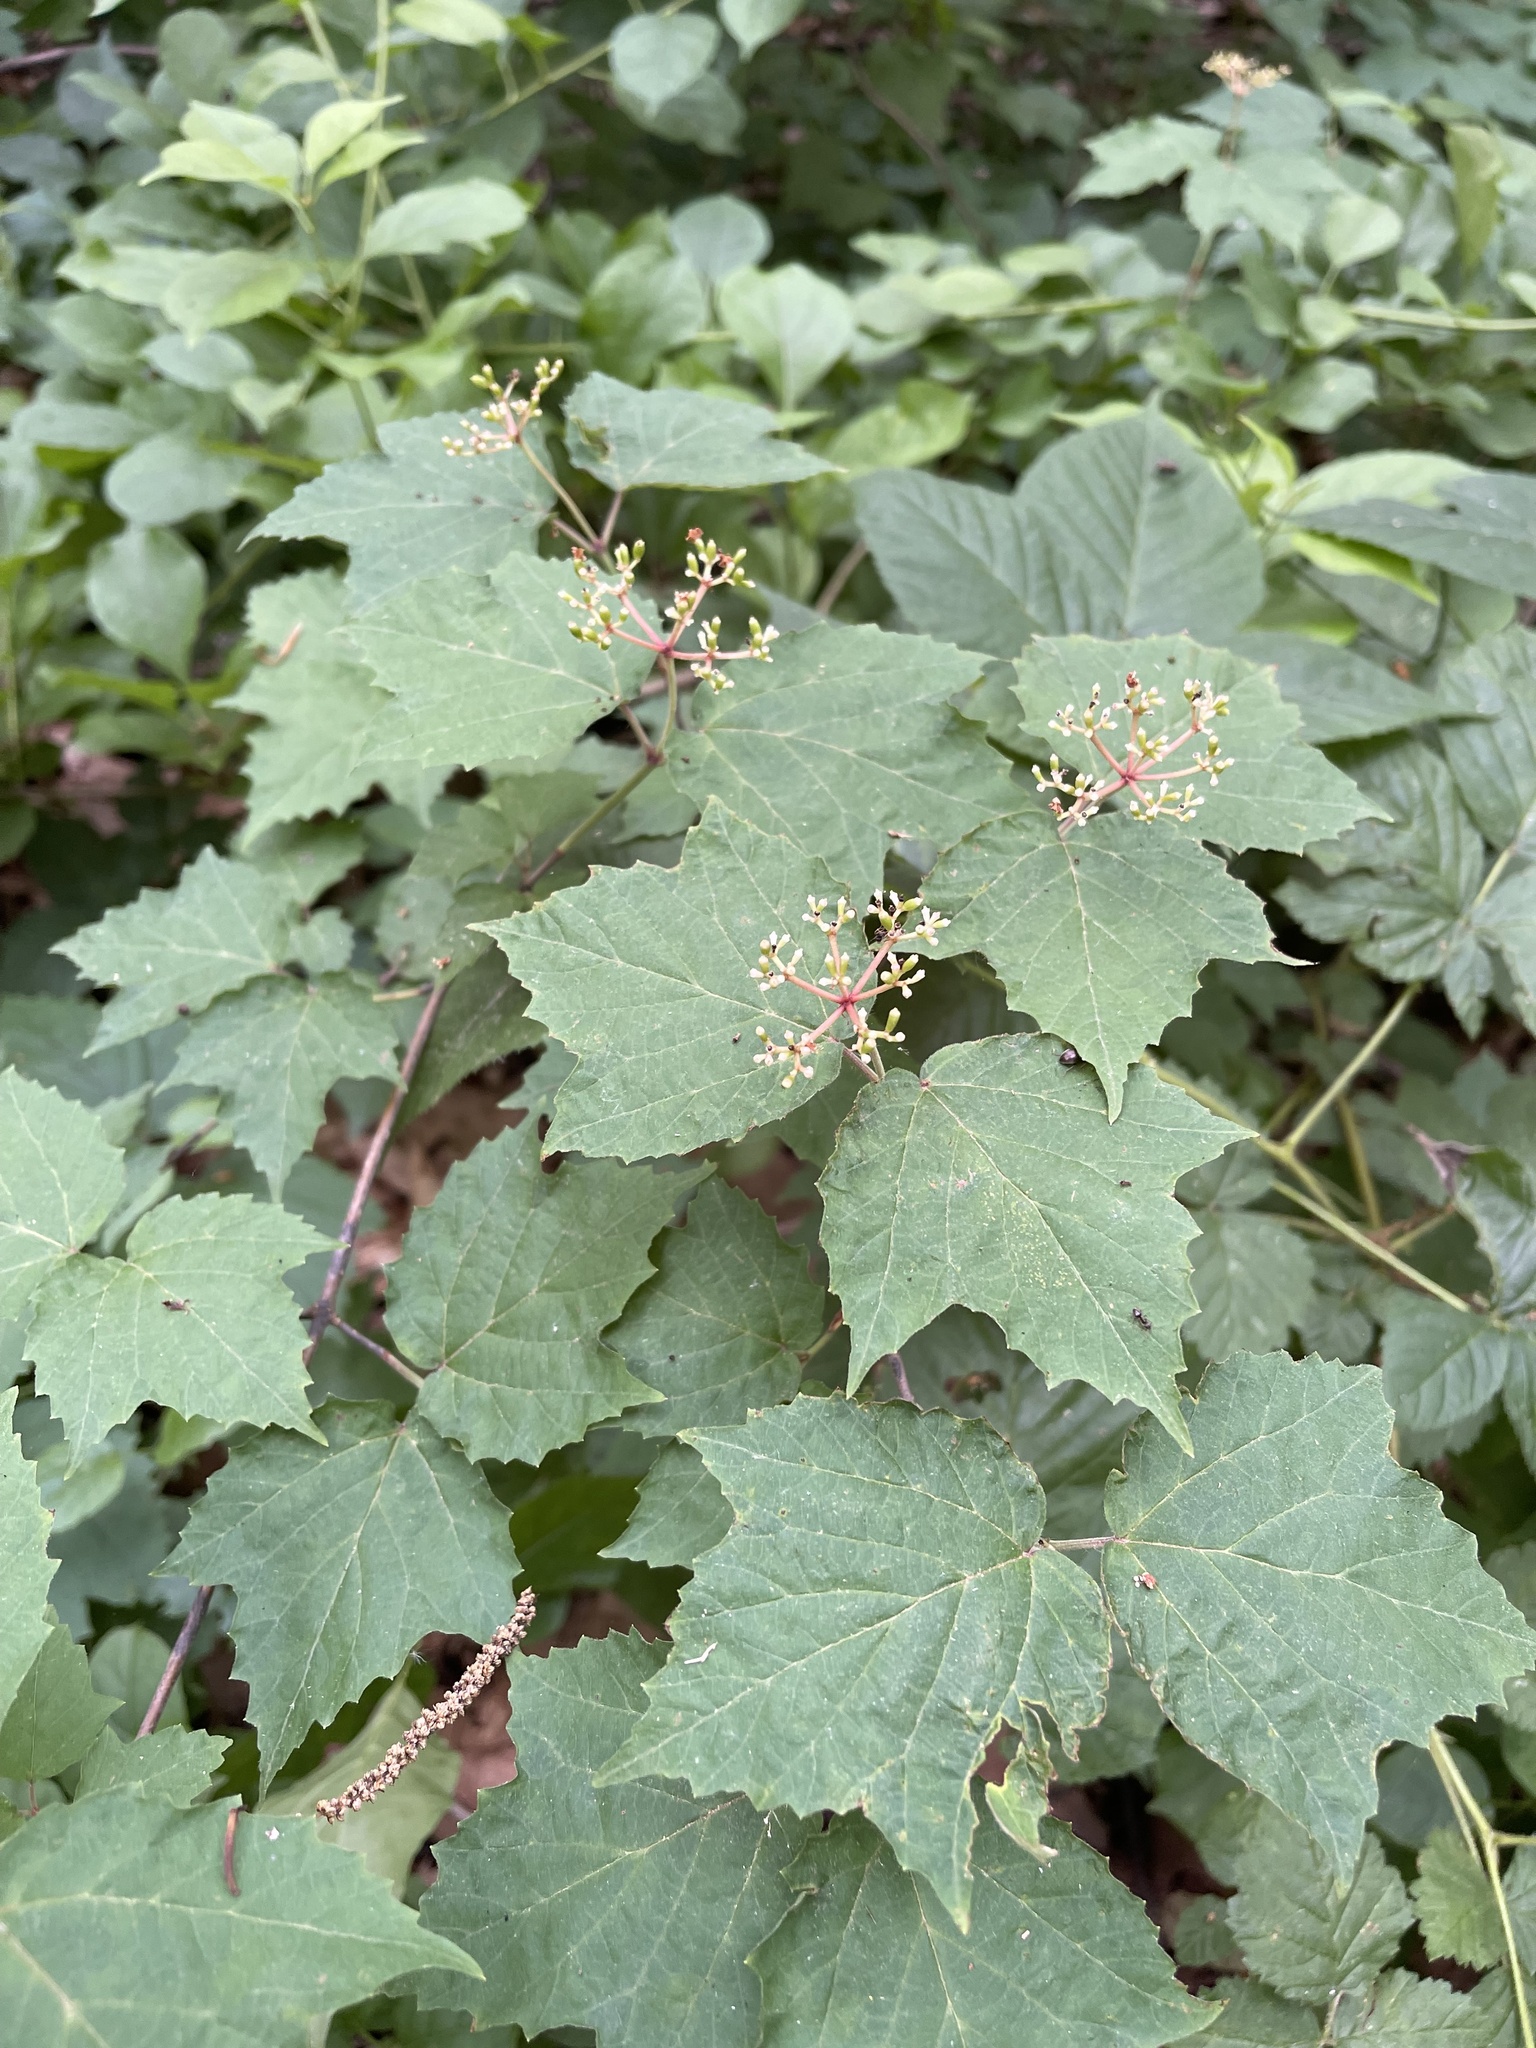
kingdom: Plantae
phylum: Tracheophyta
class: Magnoliopsida
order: Dipsacales
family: Viburnaceae
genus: Viburnum
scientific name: Viburnum acerifolium
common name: Dockmackie
